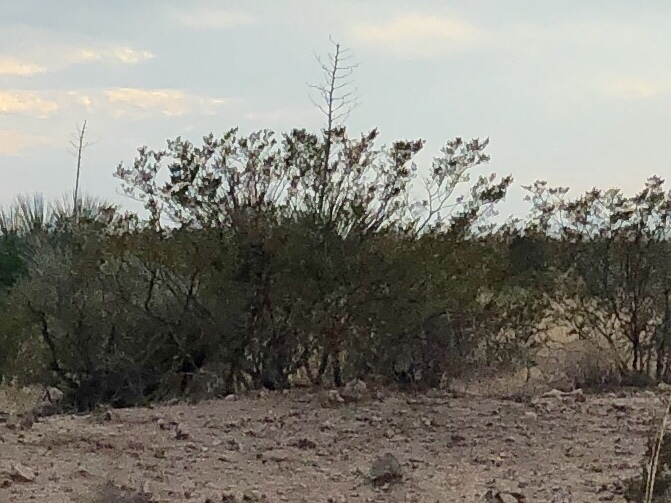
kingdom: Plantae
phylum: Tracheophyta
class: Magnoliopsida
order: Zygophyllales
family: Zygophyllaceae
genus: Larrea
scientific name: Larrea tridentata
